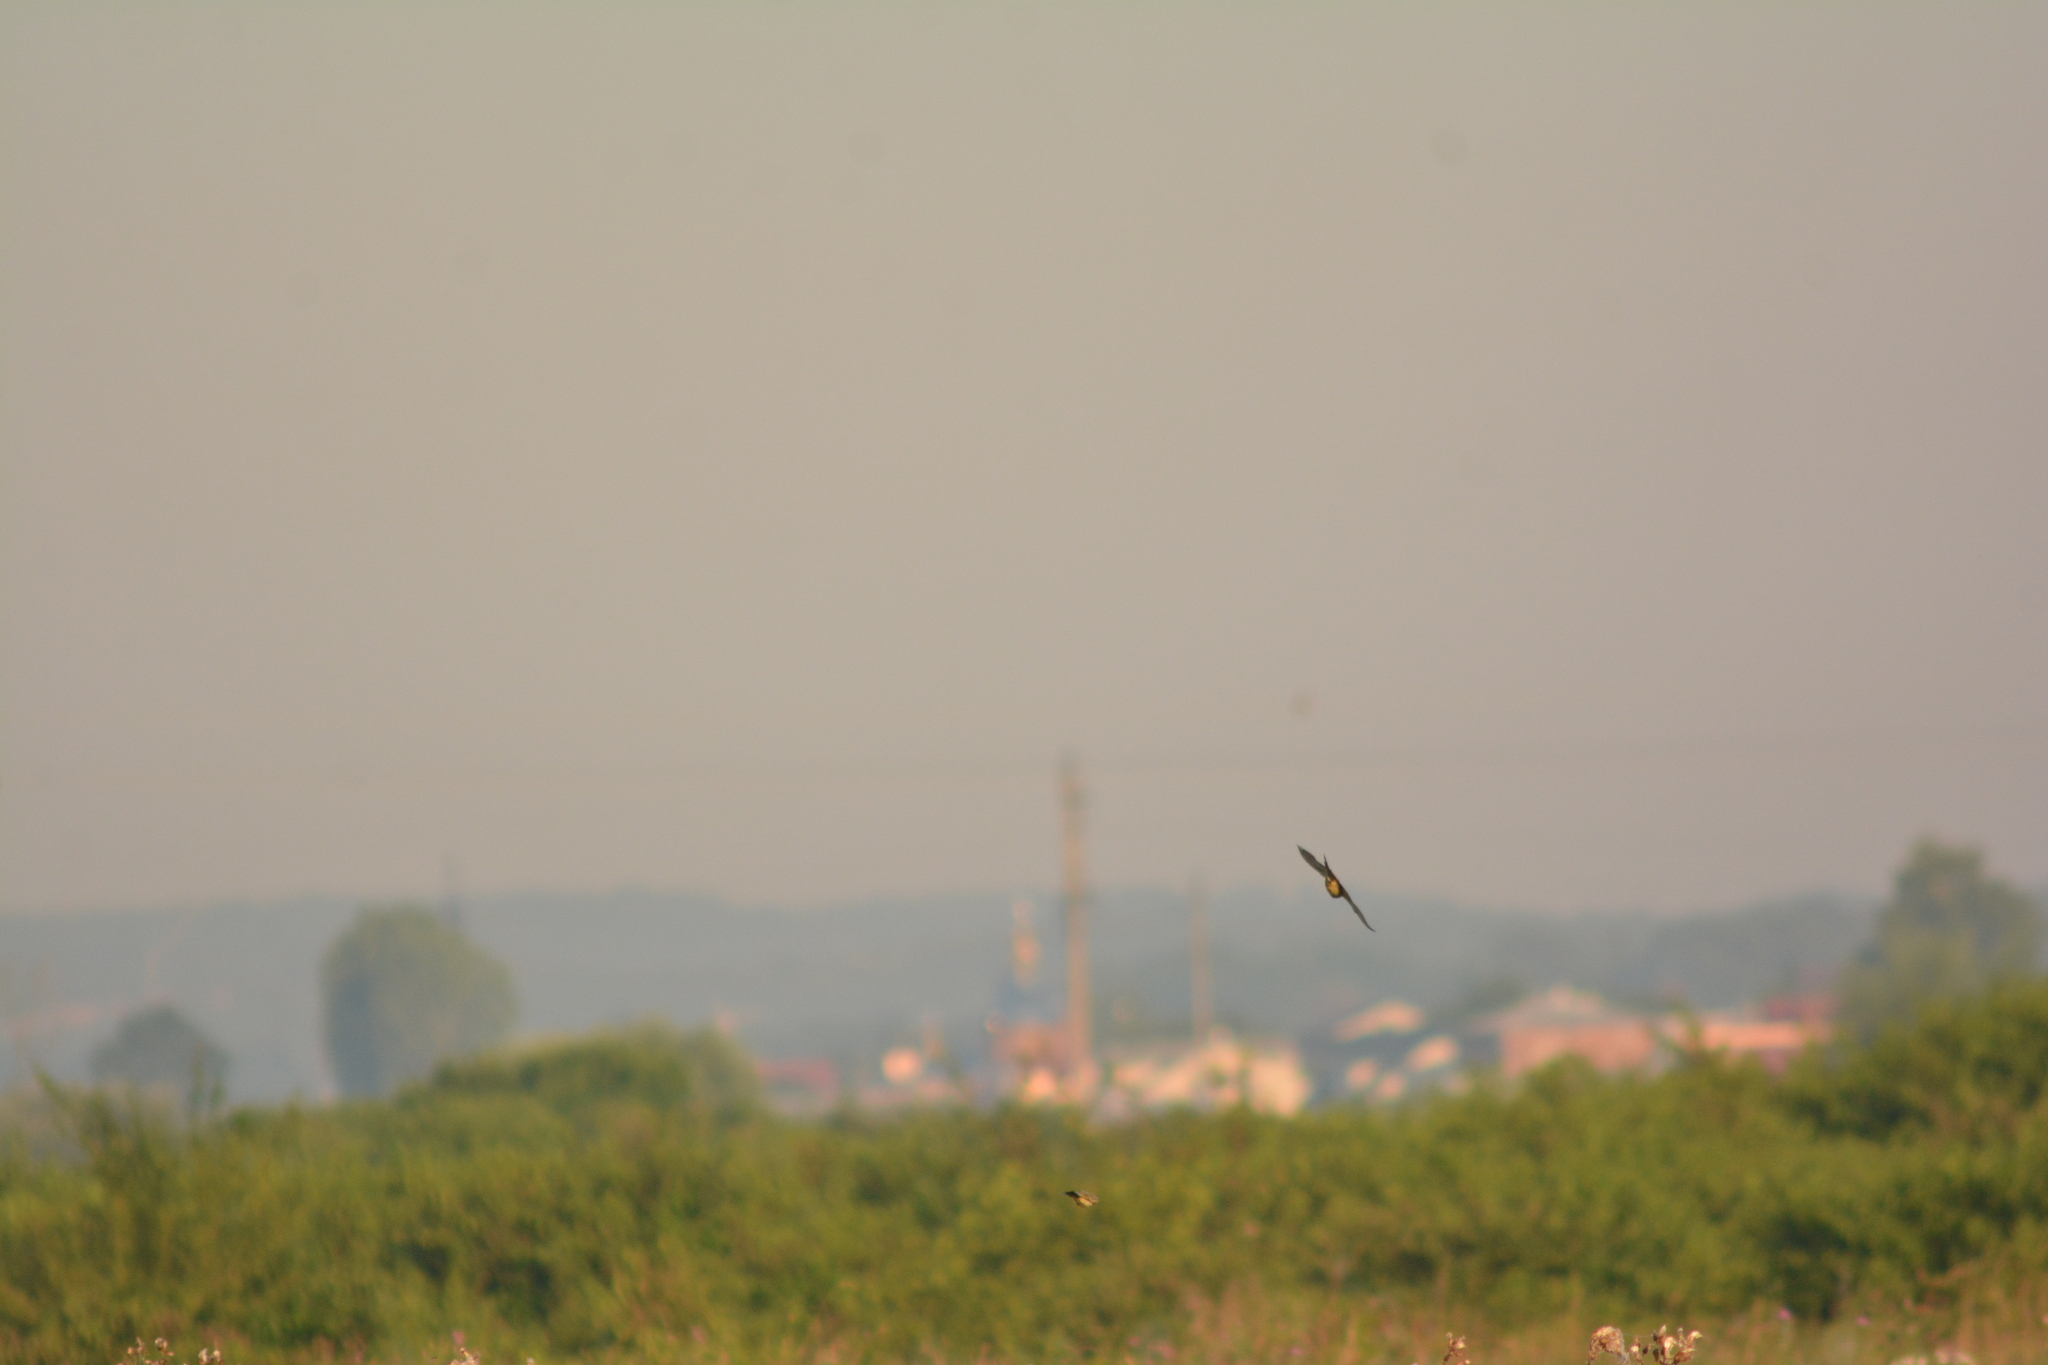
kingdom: Animalia
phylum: Chordata
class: Aves
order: Passeriformes
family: Motacillidae
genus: Motacilla
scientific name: Motacilla flava
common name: Western yellow wagtail
